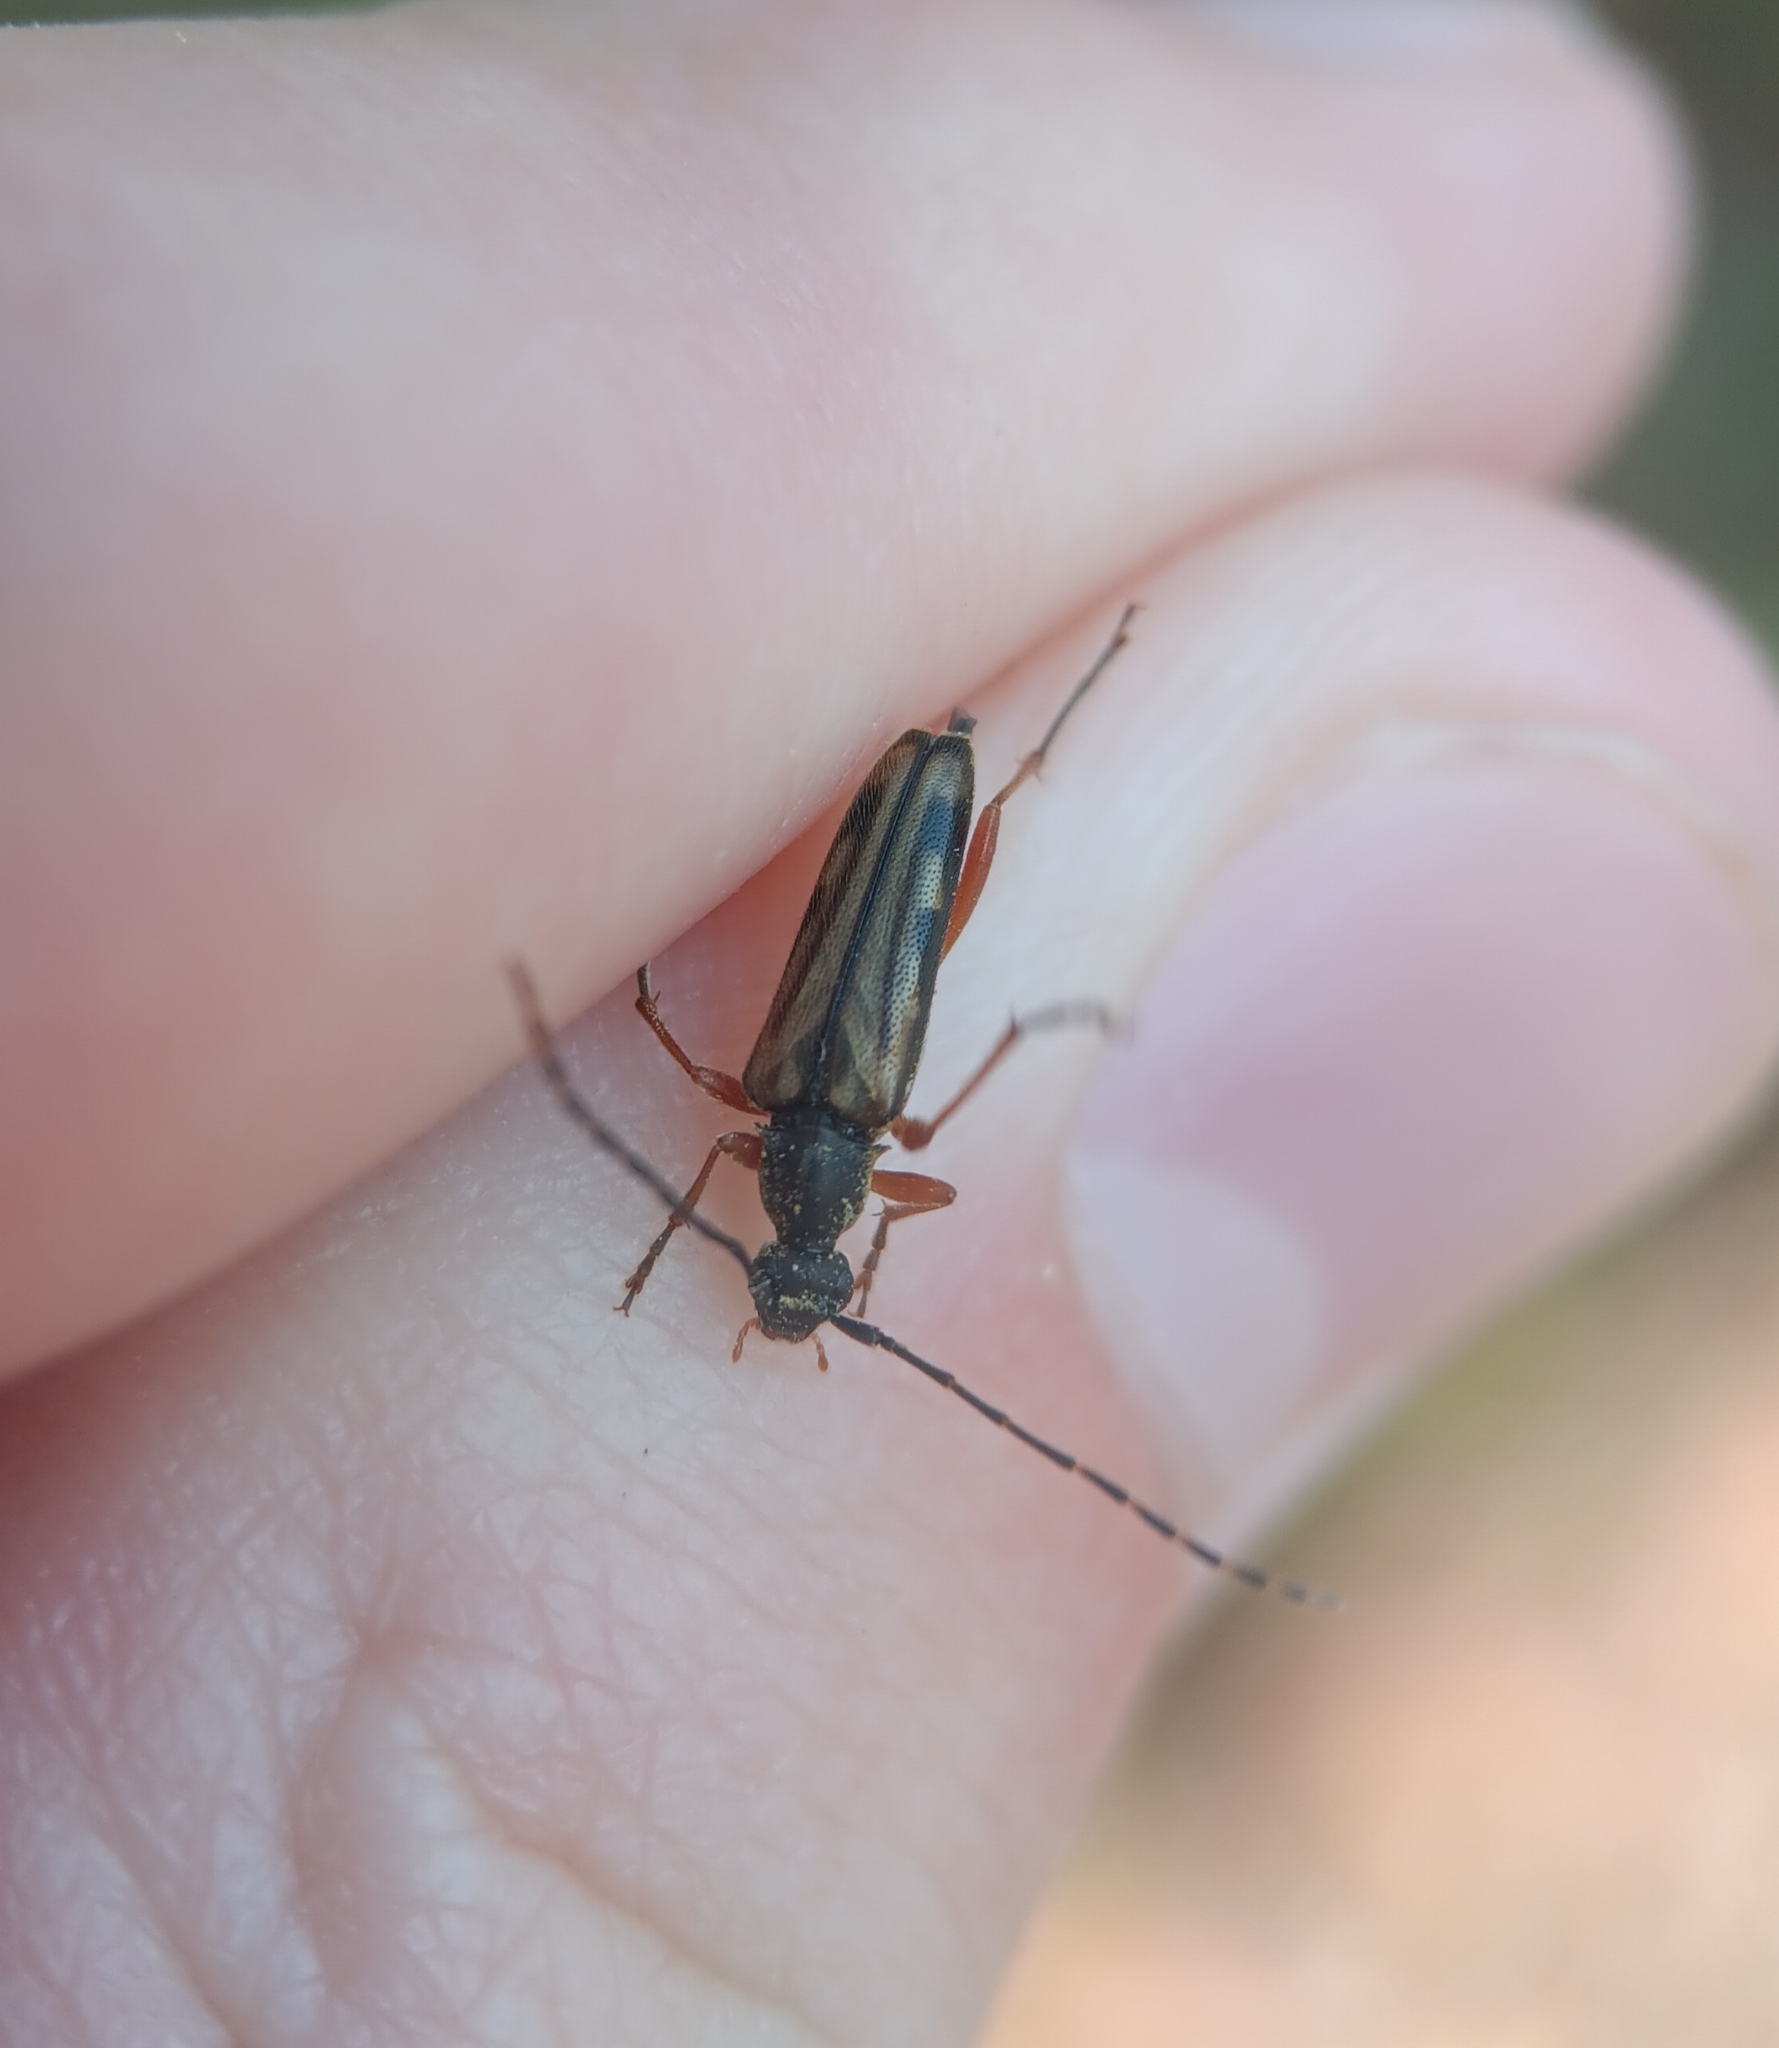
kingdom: Animalia
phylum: Arthropoda
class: Insecta
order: Coleoptera
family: Cerambycidae
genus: Analeptura
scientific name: Analeptura lineola
